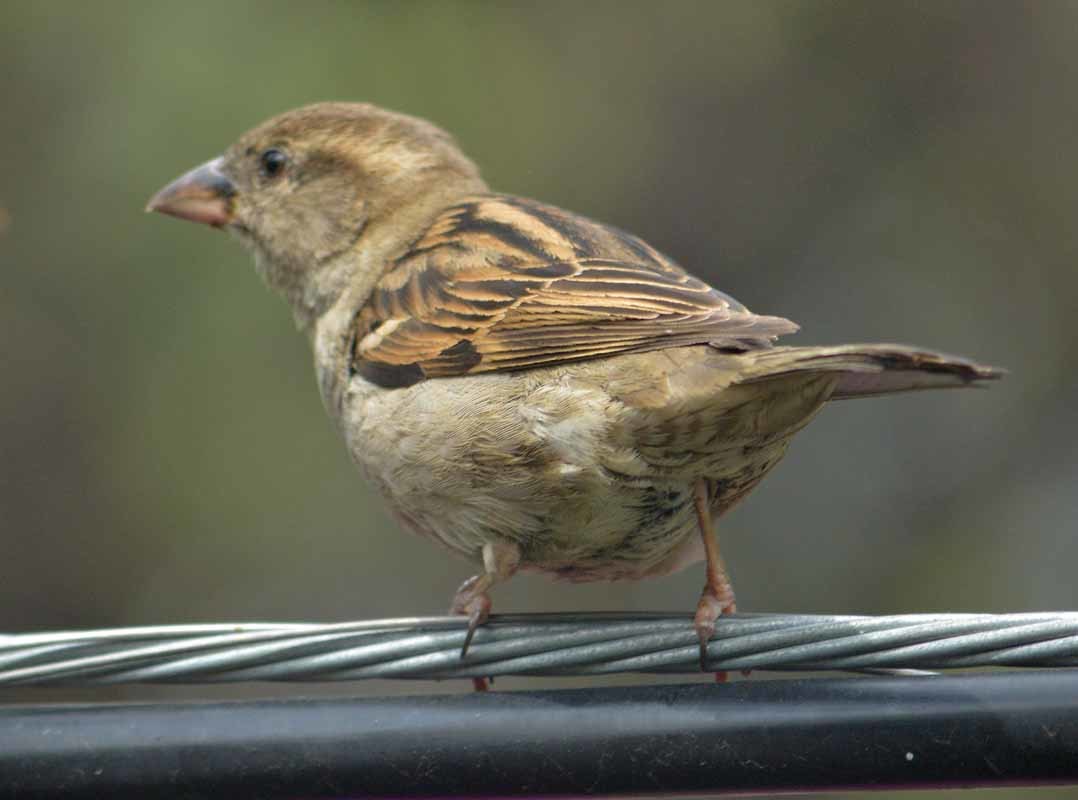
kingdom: Animalia
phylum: Chordata
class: Aves
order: Passeriformes
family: Passeridae
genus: Passer
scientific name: Passer domesticus
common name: House sparrow
